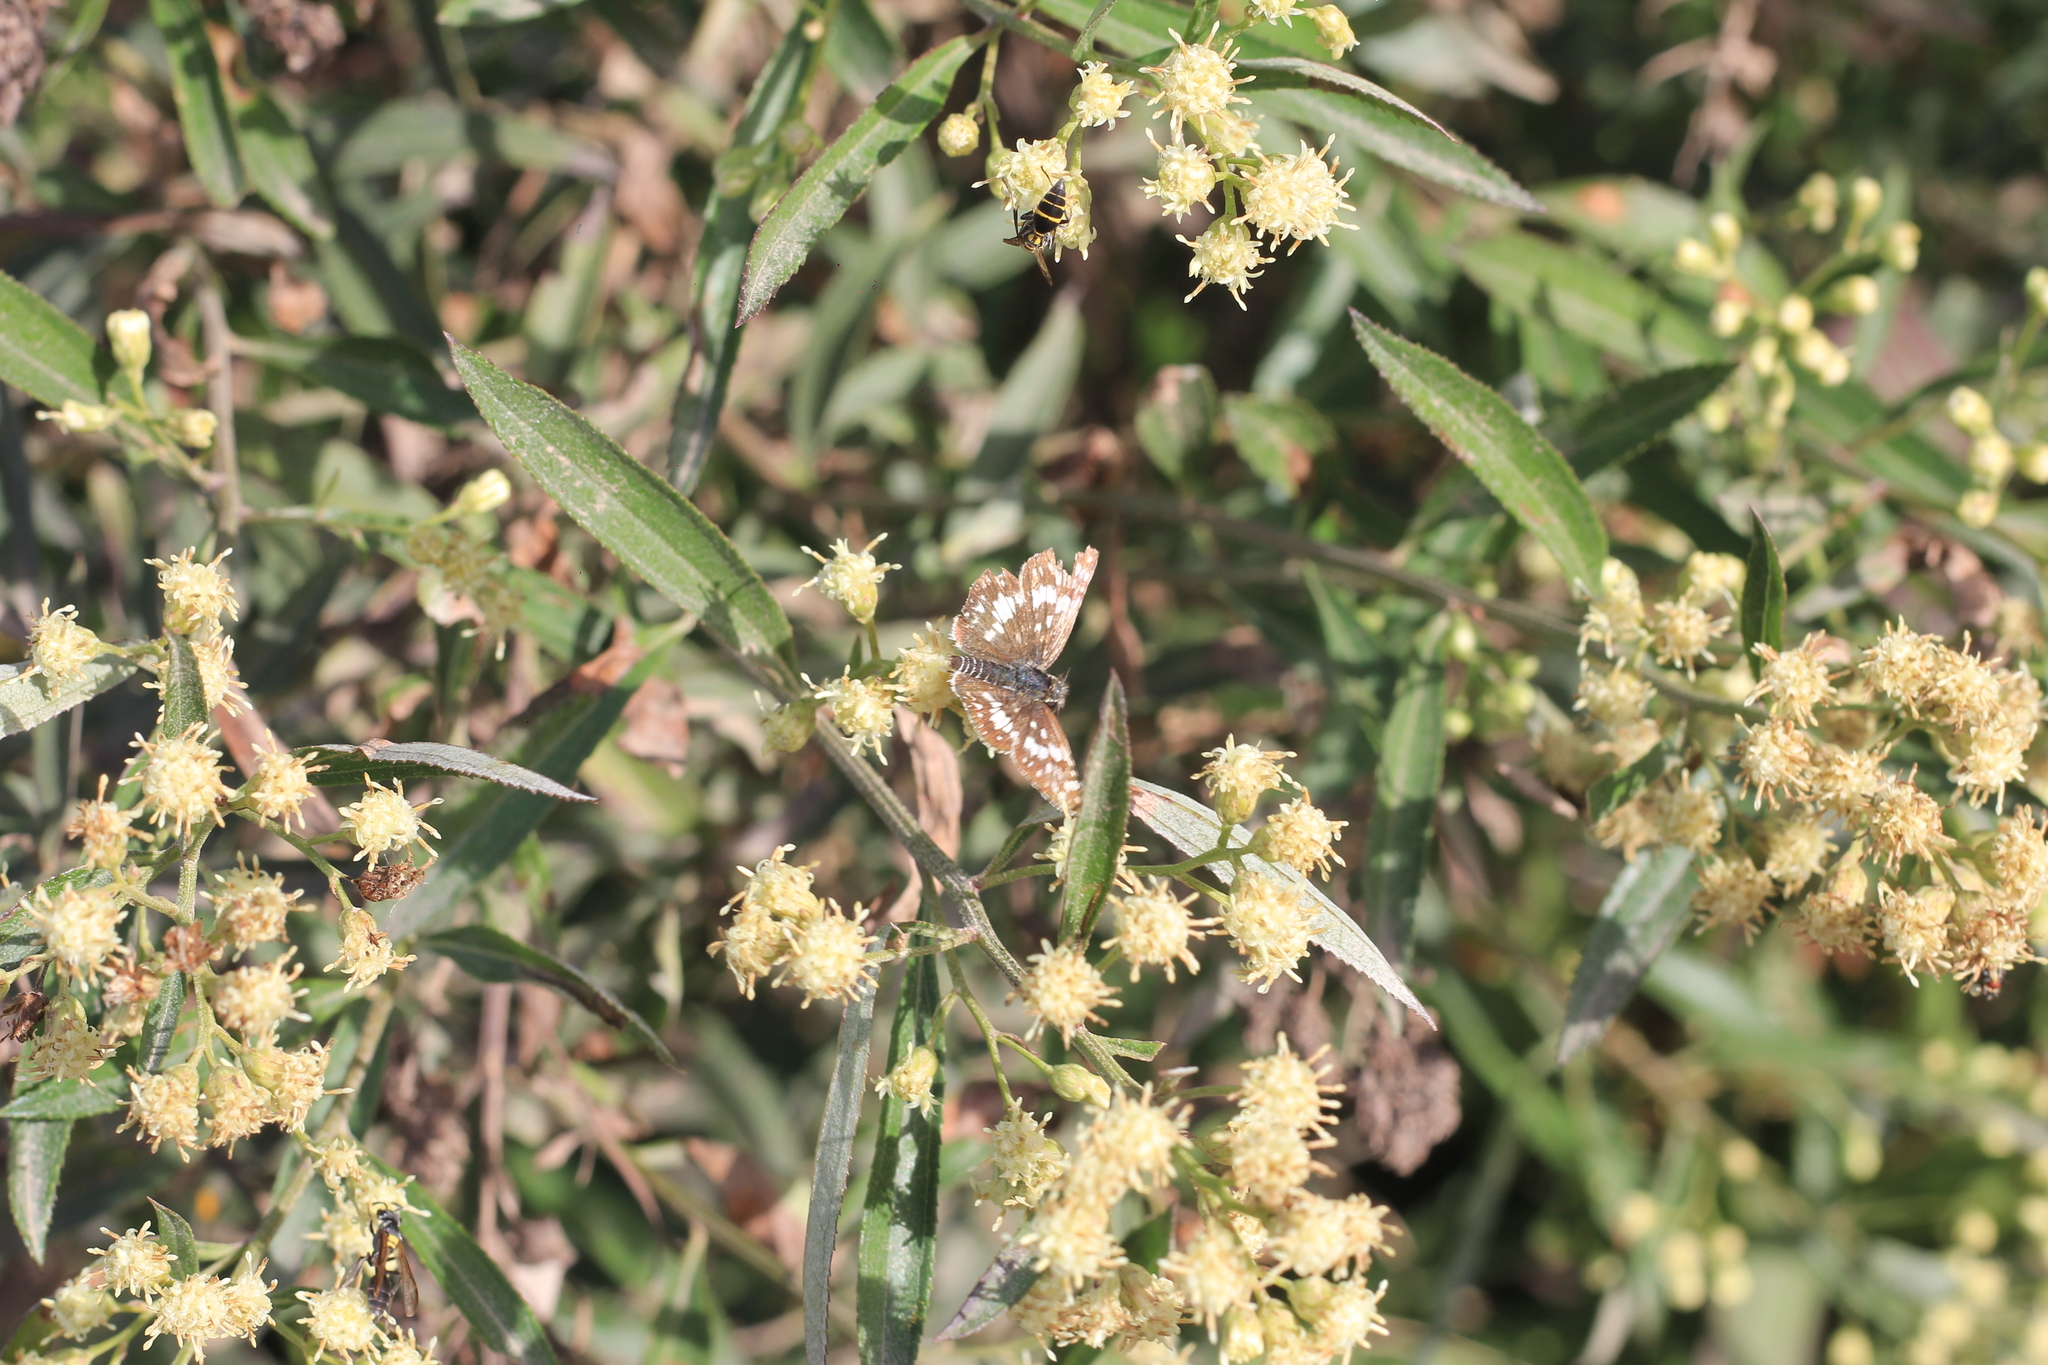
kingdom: Animalia
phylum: Arthropoda
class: Insecta
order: Lepidoptera
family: Hesperiidae
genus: Burnsius
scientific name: Burnsius orcynoides
